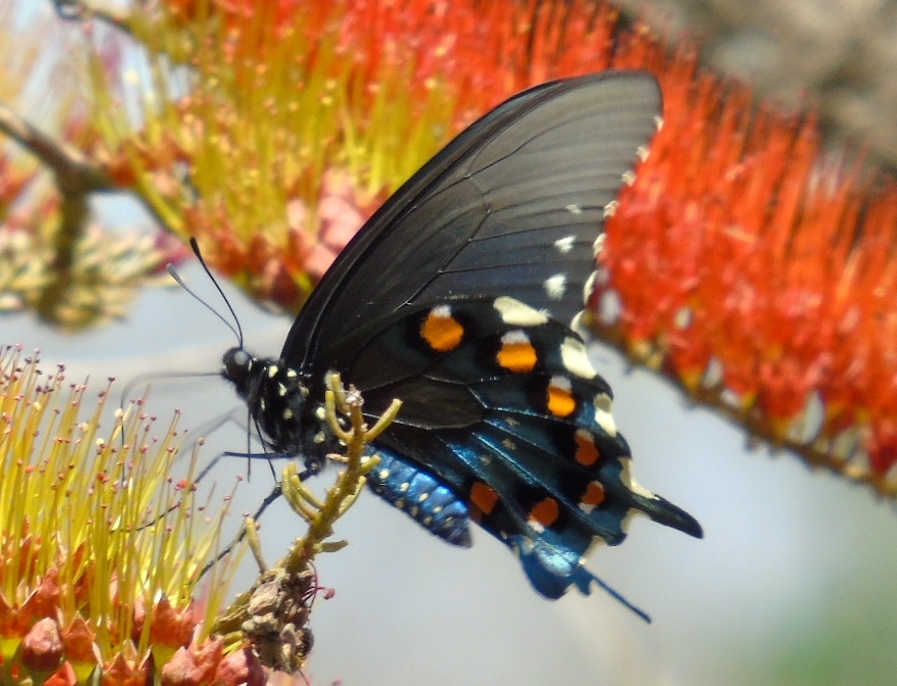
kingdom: Animalia
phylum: Arthropoda
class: Insecta
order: Lepidoptera
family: Papilionidae
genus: Battus
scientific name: Battus philenor
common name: Pipevine swallowtail
